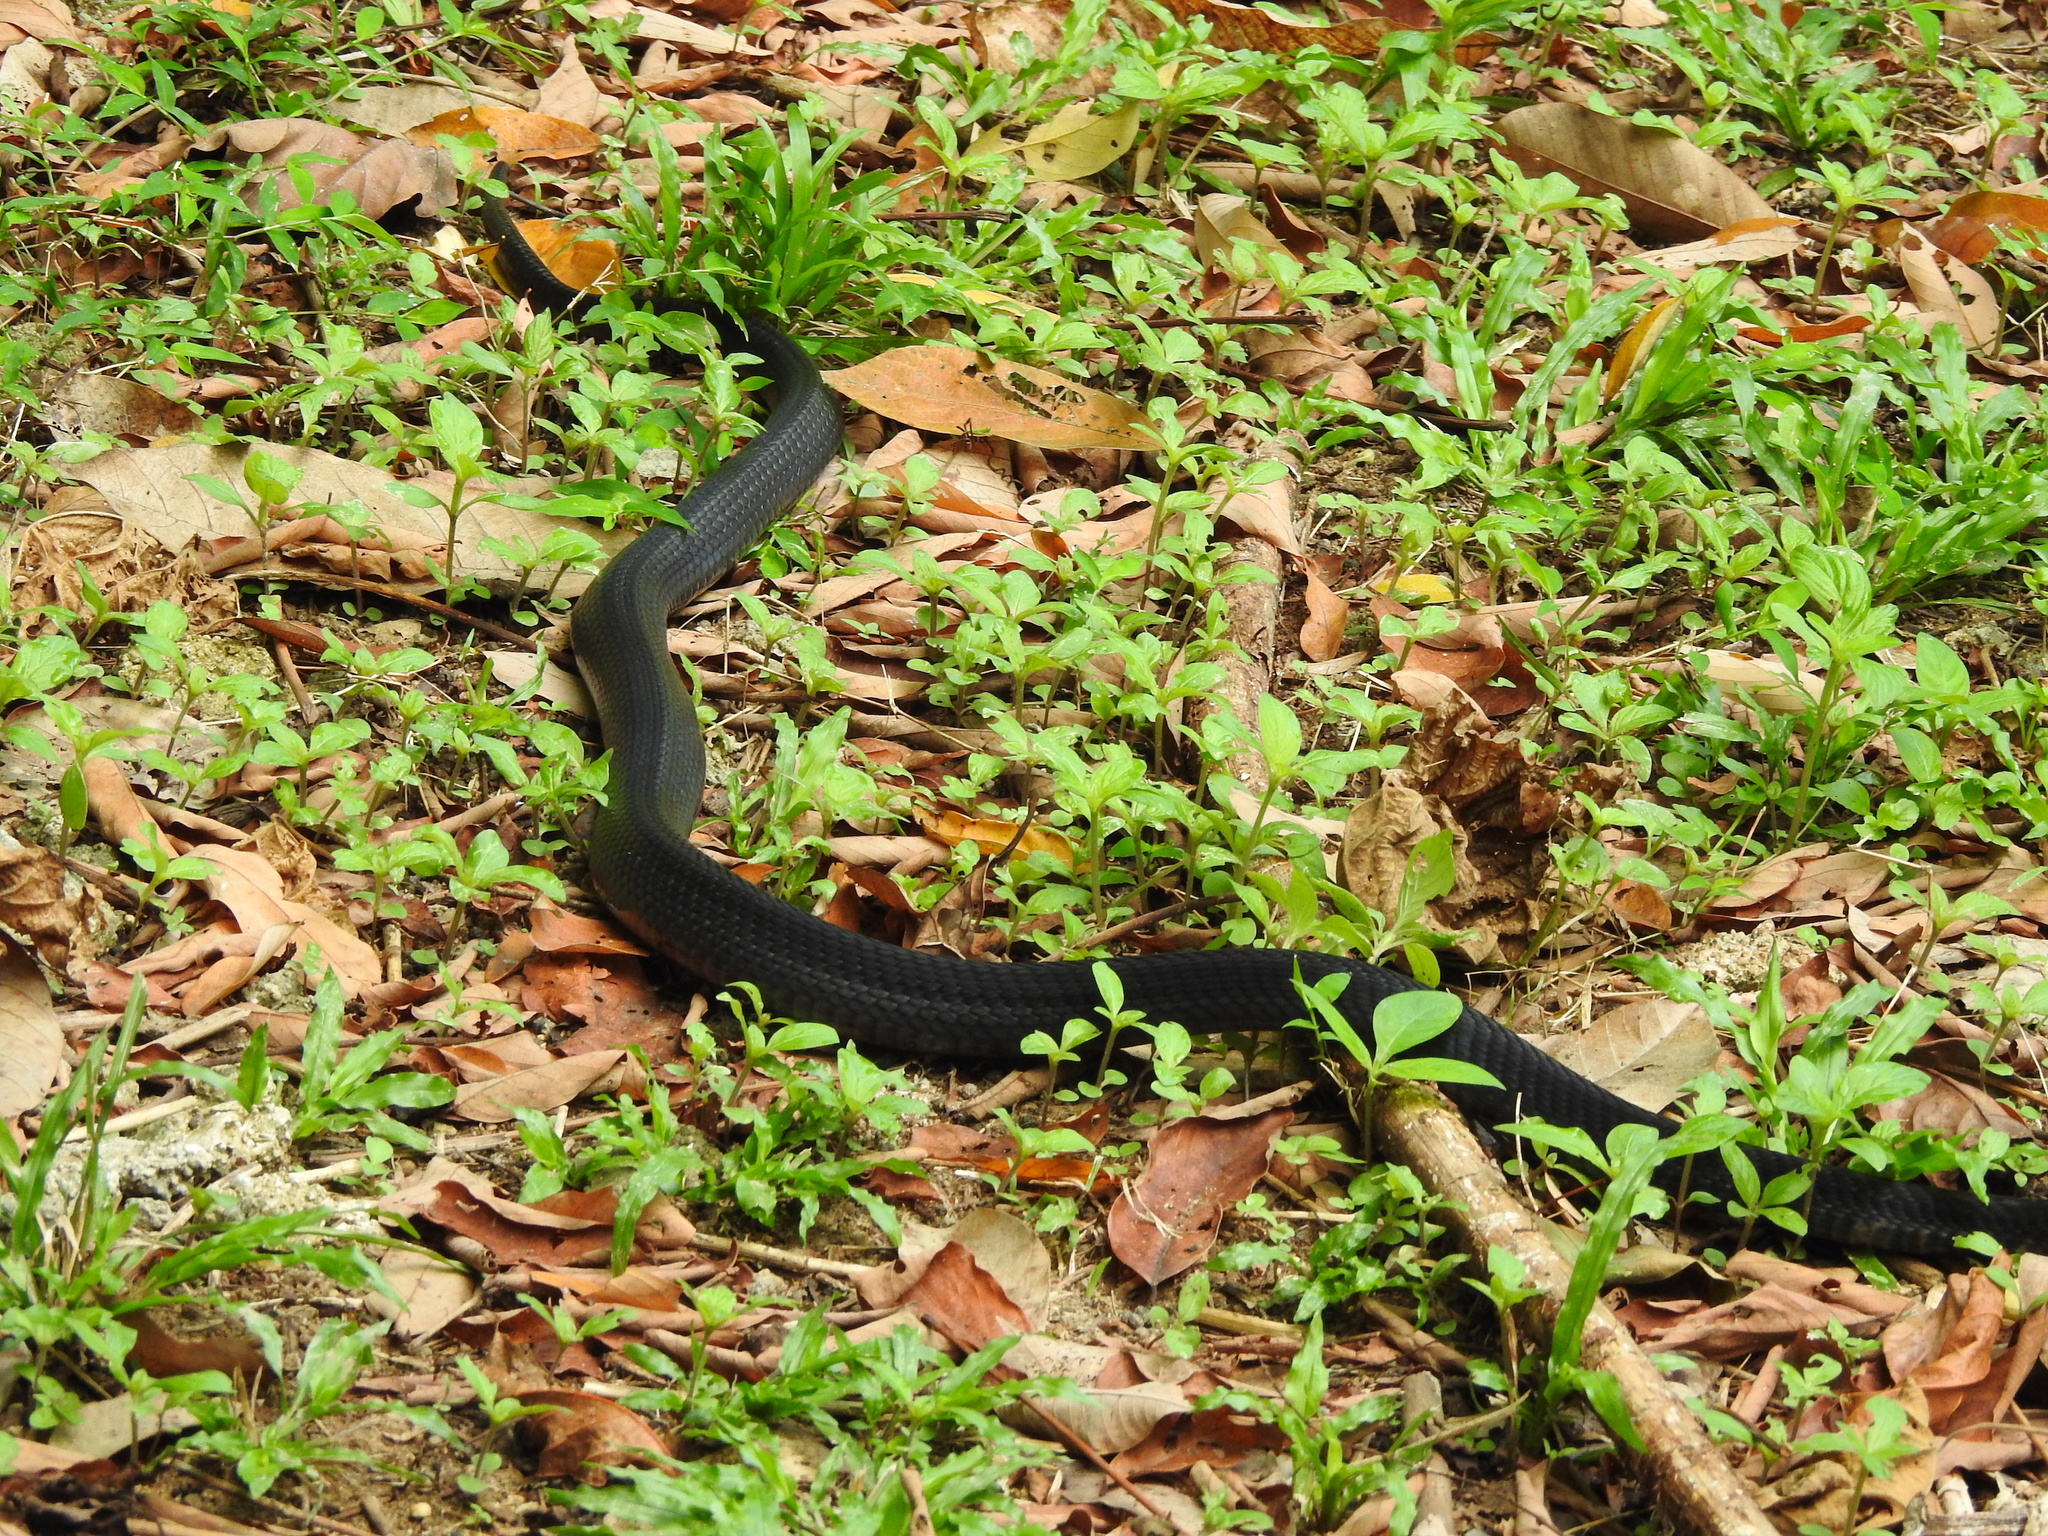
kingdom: Animalia
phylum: Chordata
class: Squamata
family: Elapidae
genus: Naja
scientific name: Naja sumatrana
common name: Equatorial spitting cobra
